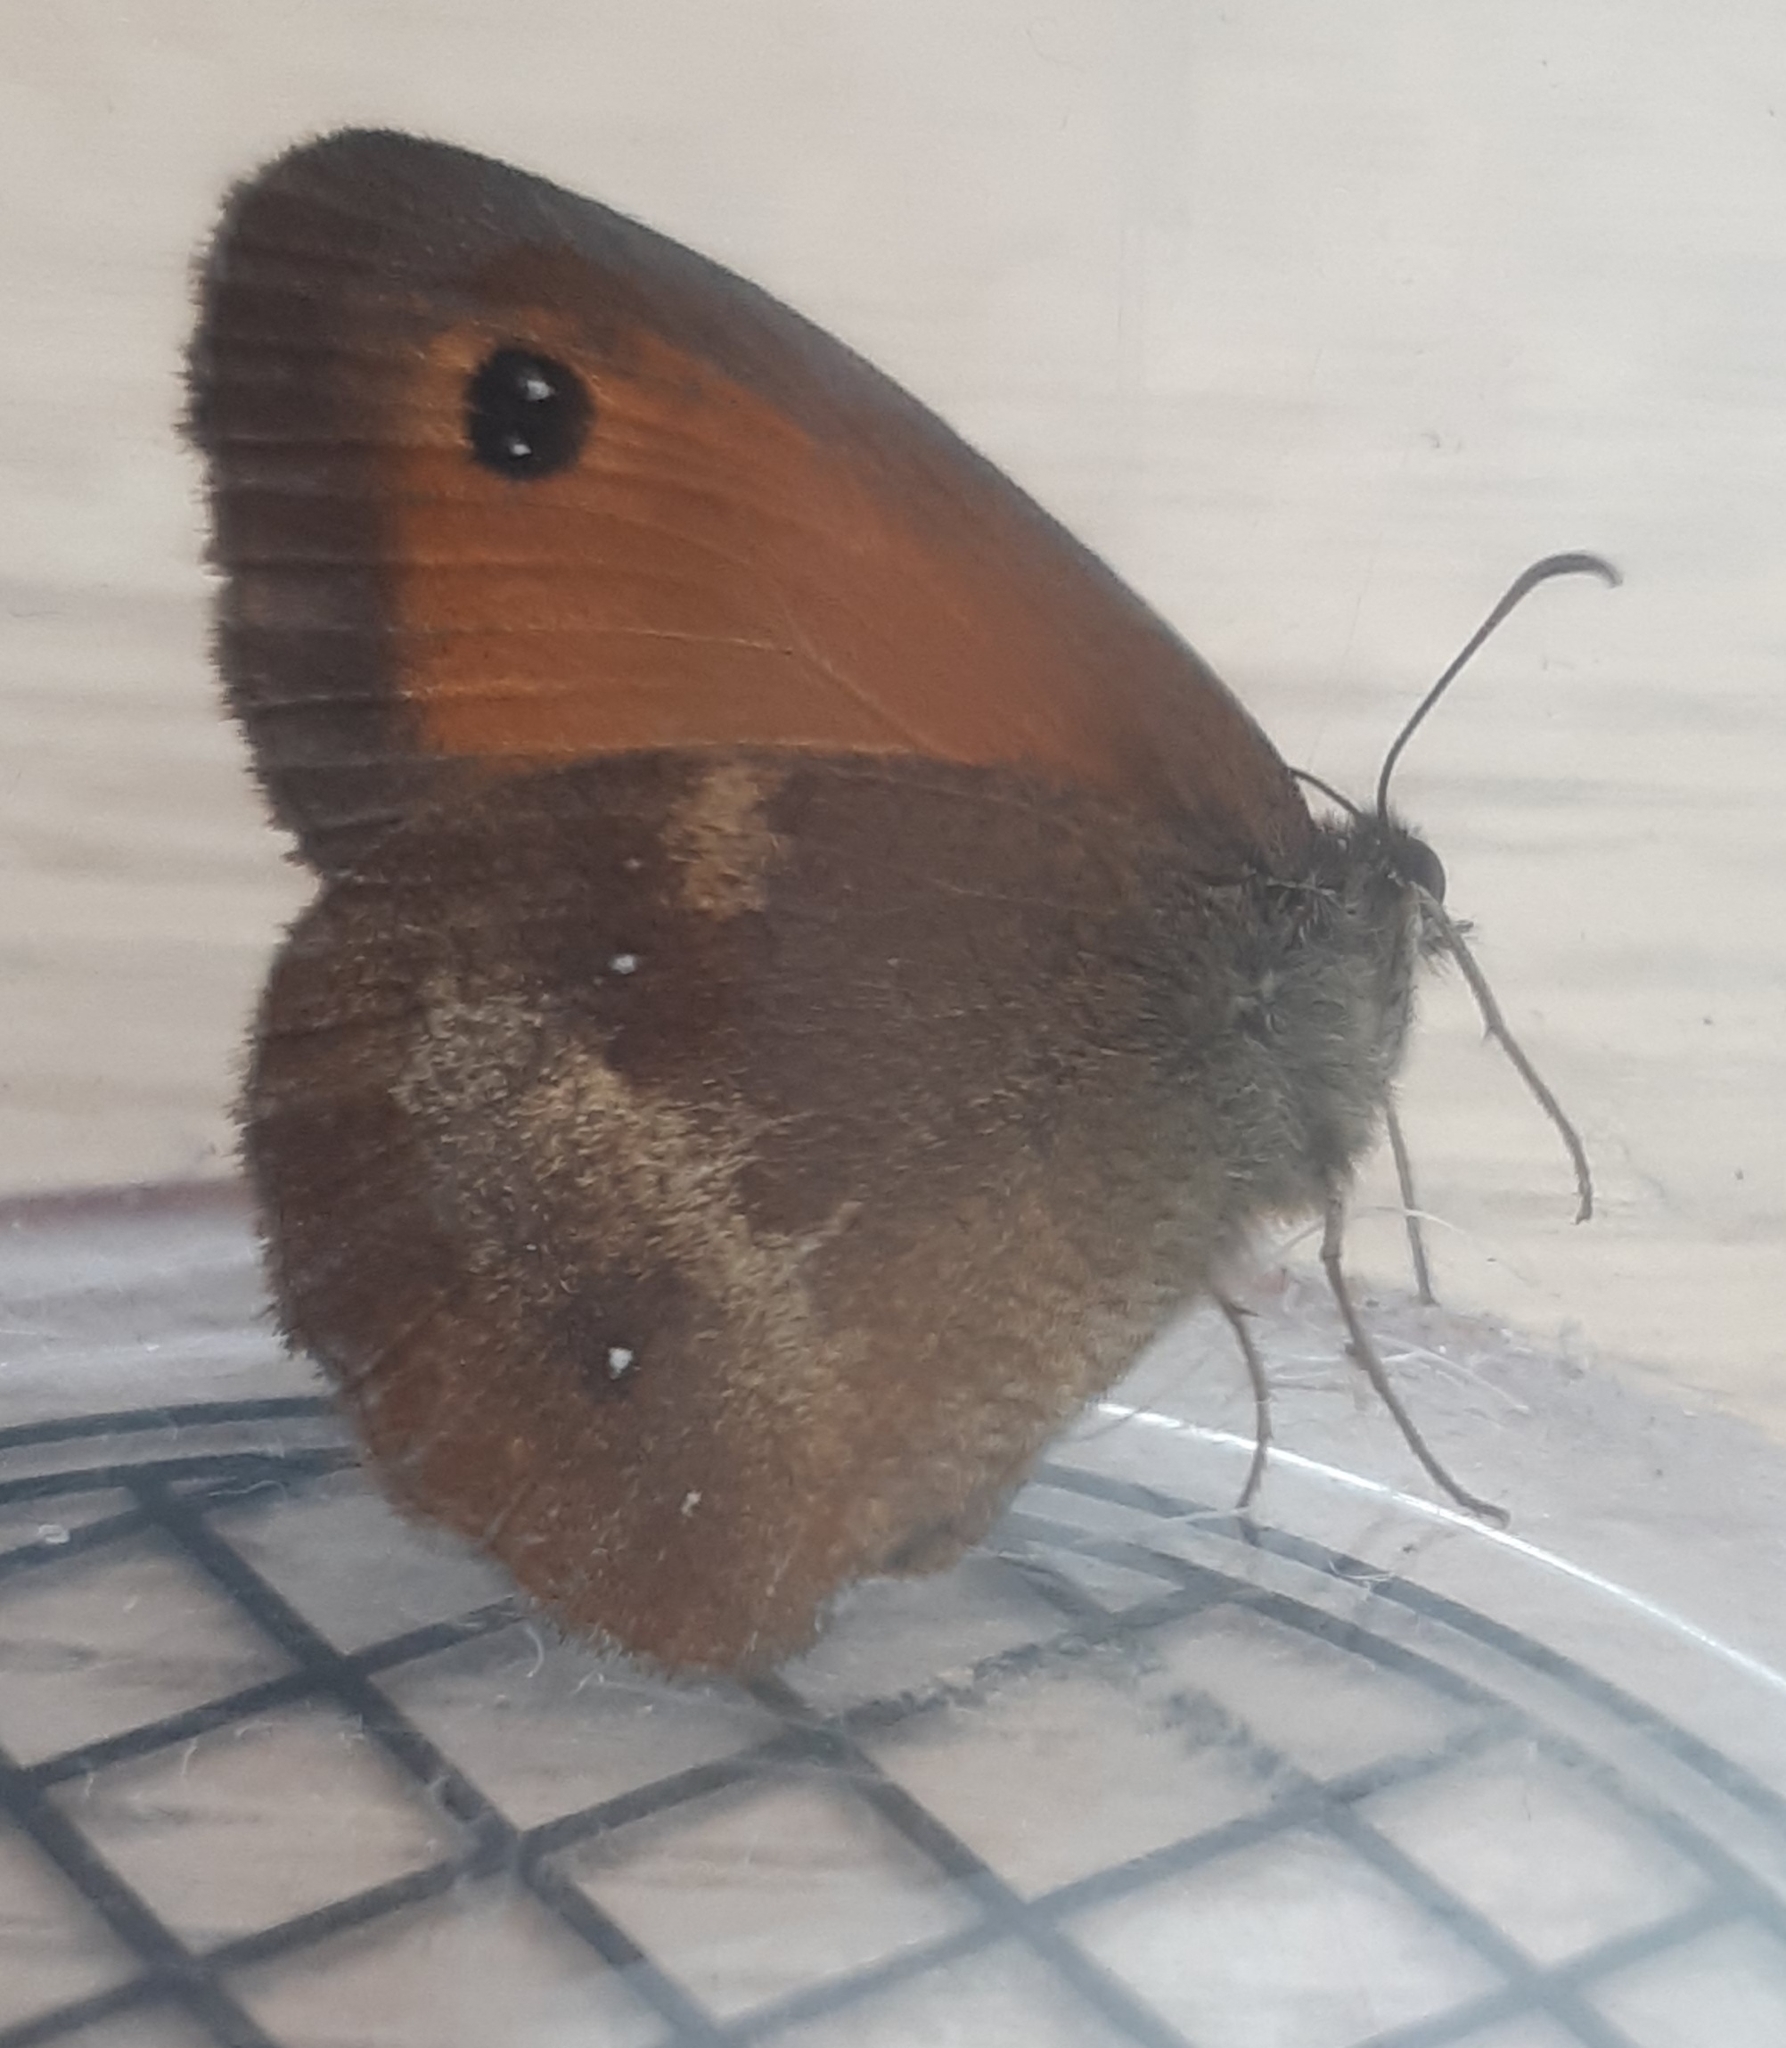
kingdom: Animalia
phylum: Arthropoda
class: Insecta
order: Lepidoptera
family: Nymphalidae
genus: Pyronia
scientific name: Pyronia tithonus
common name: Gatekeeper
